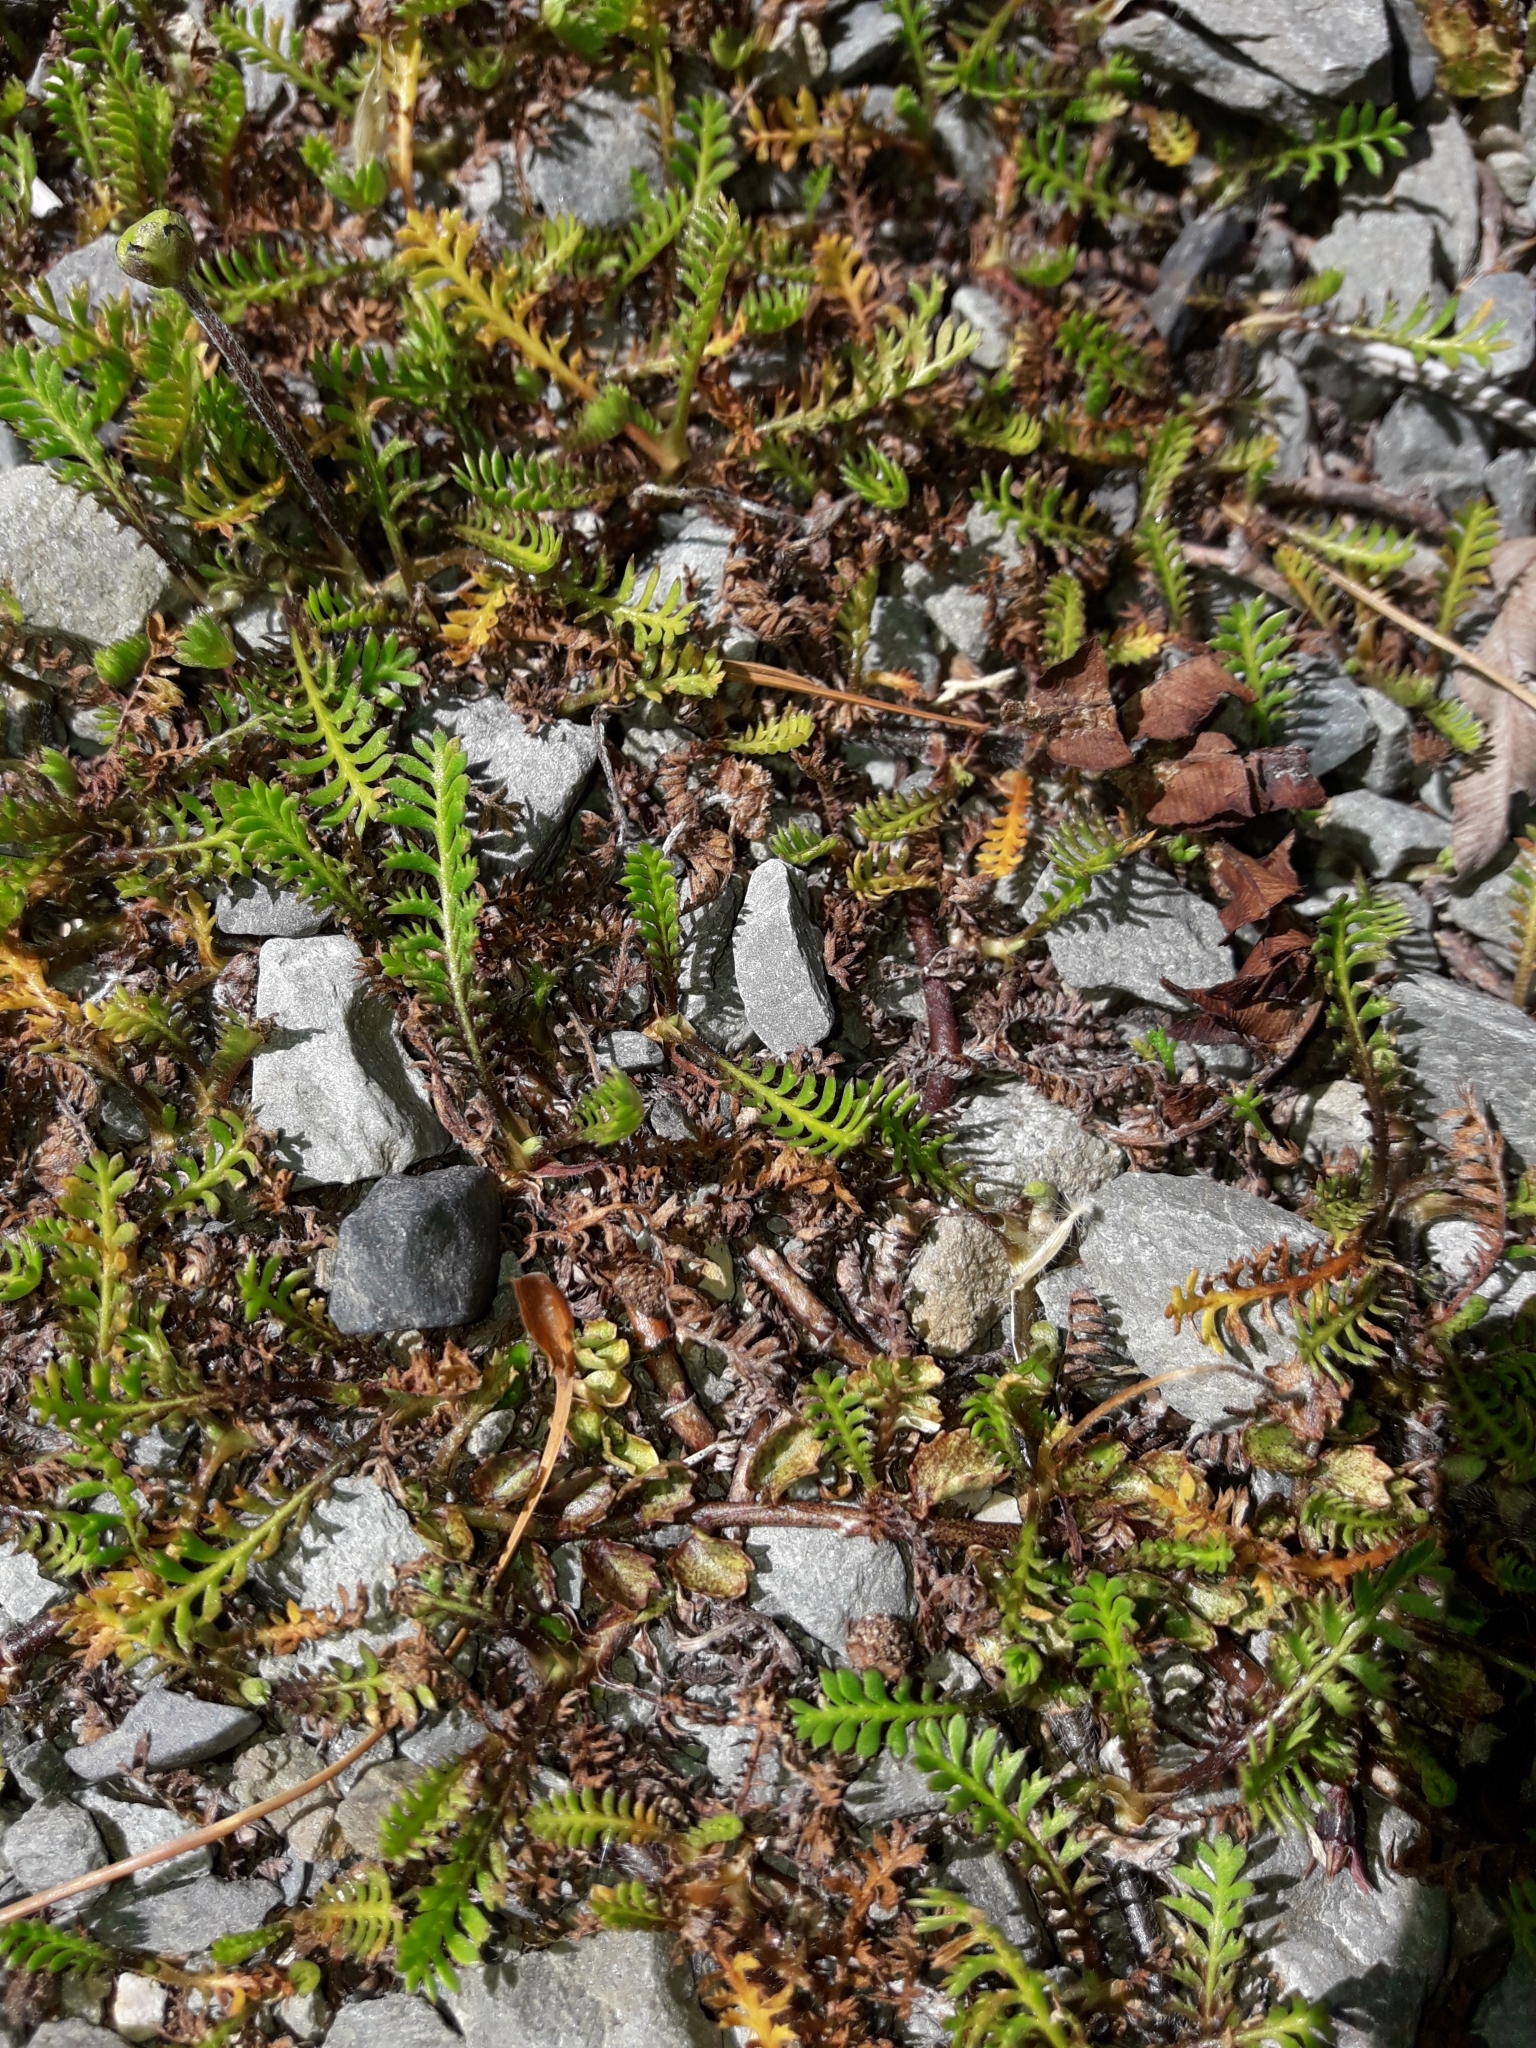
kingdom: Plantae
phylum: Tracheophyta
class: Magnoliopsida
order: Asterales
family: Asteraceae
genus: Leptinella
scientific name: Leptinella squalida
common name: New zealand brass-buttons
